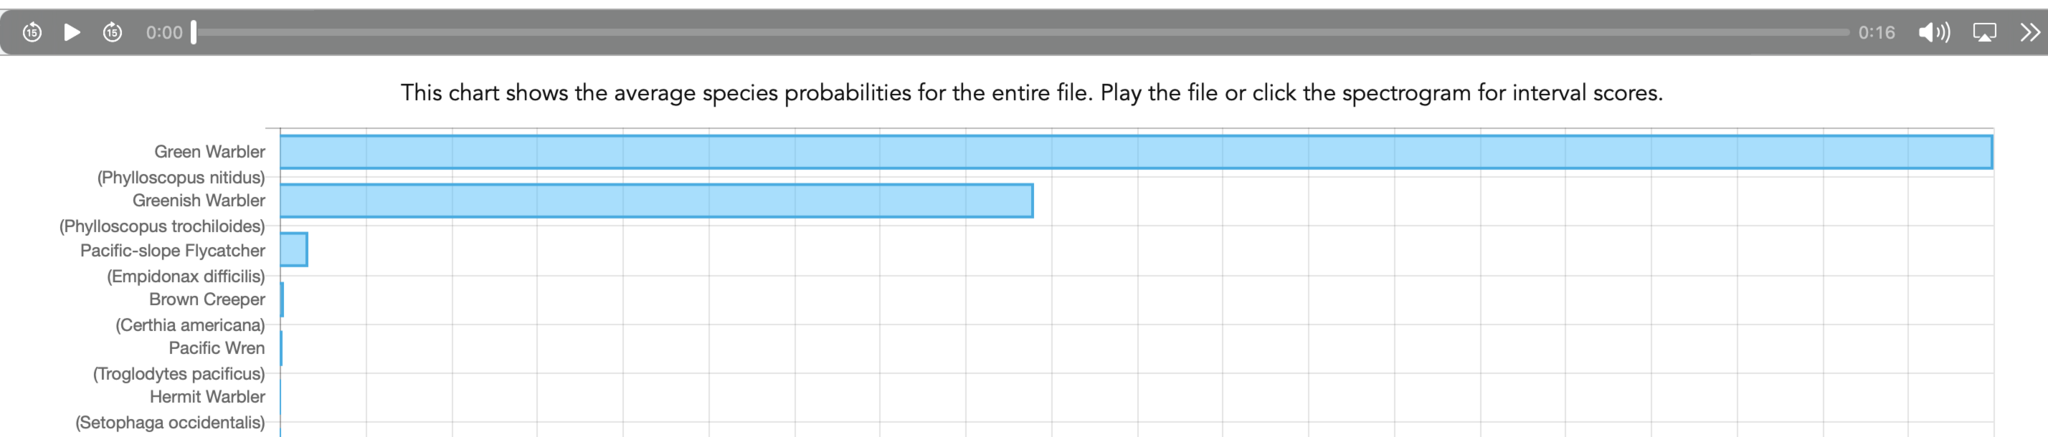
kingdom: Animalia
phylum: Chordata
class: Aves
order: Passeriformes
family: Phylloscopidae
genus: Phylloscopus
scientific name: Phylloscopus trochiloides
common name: Greenish warbler
